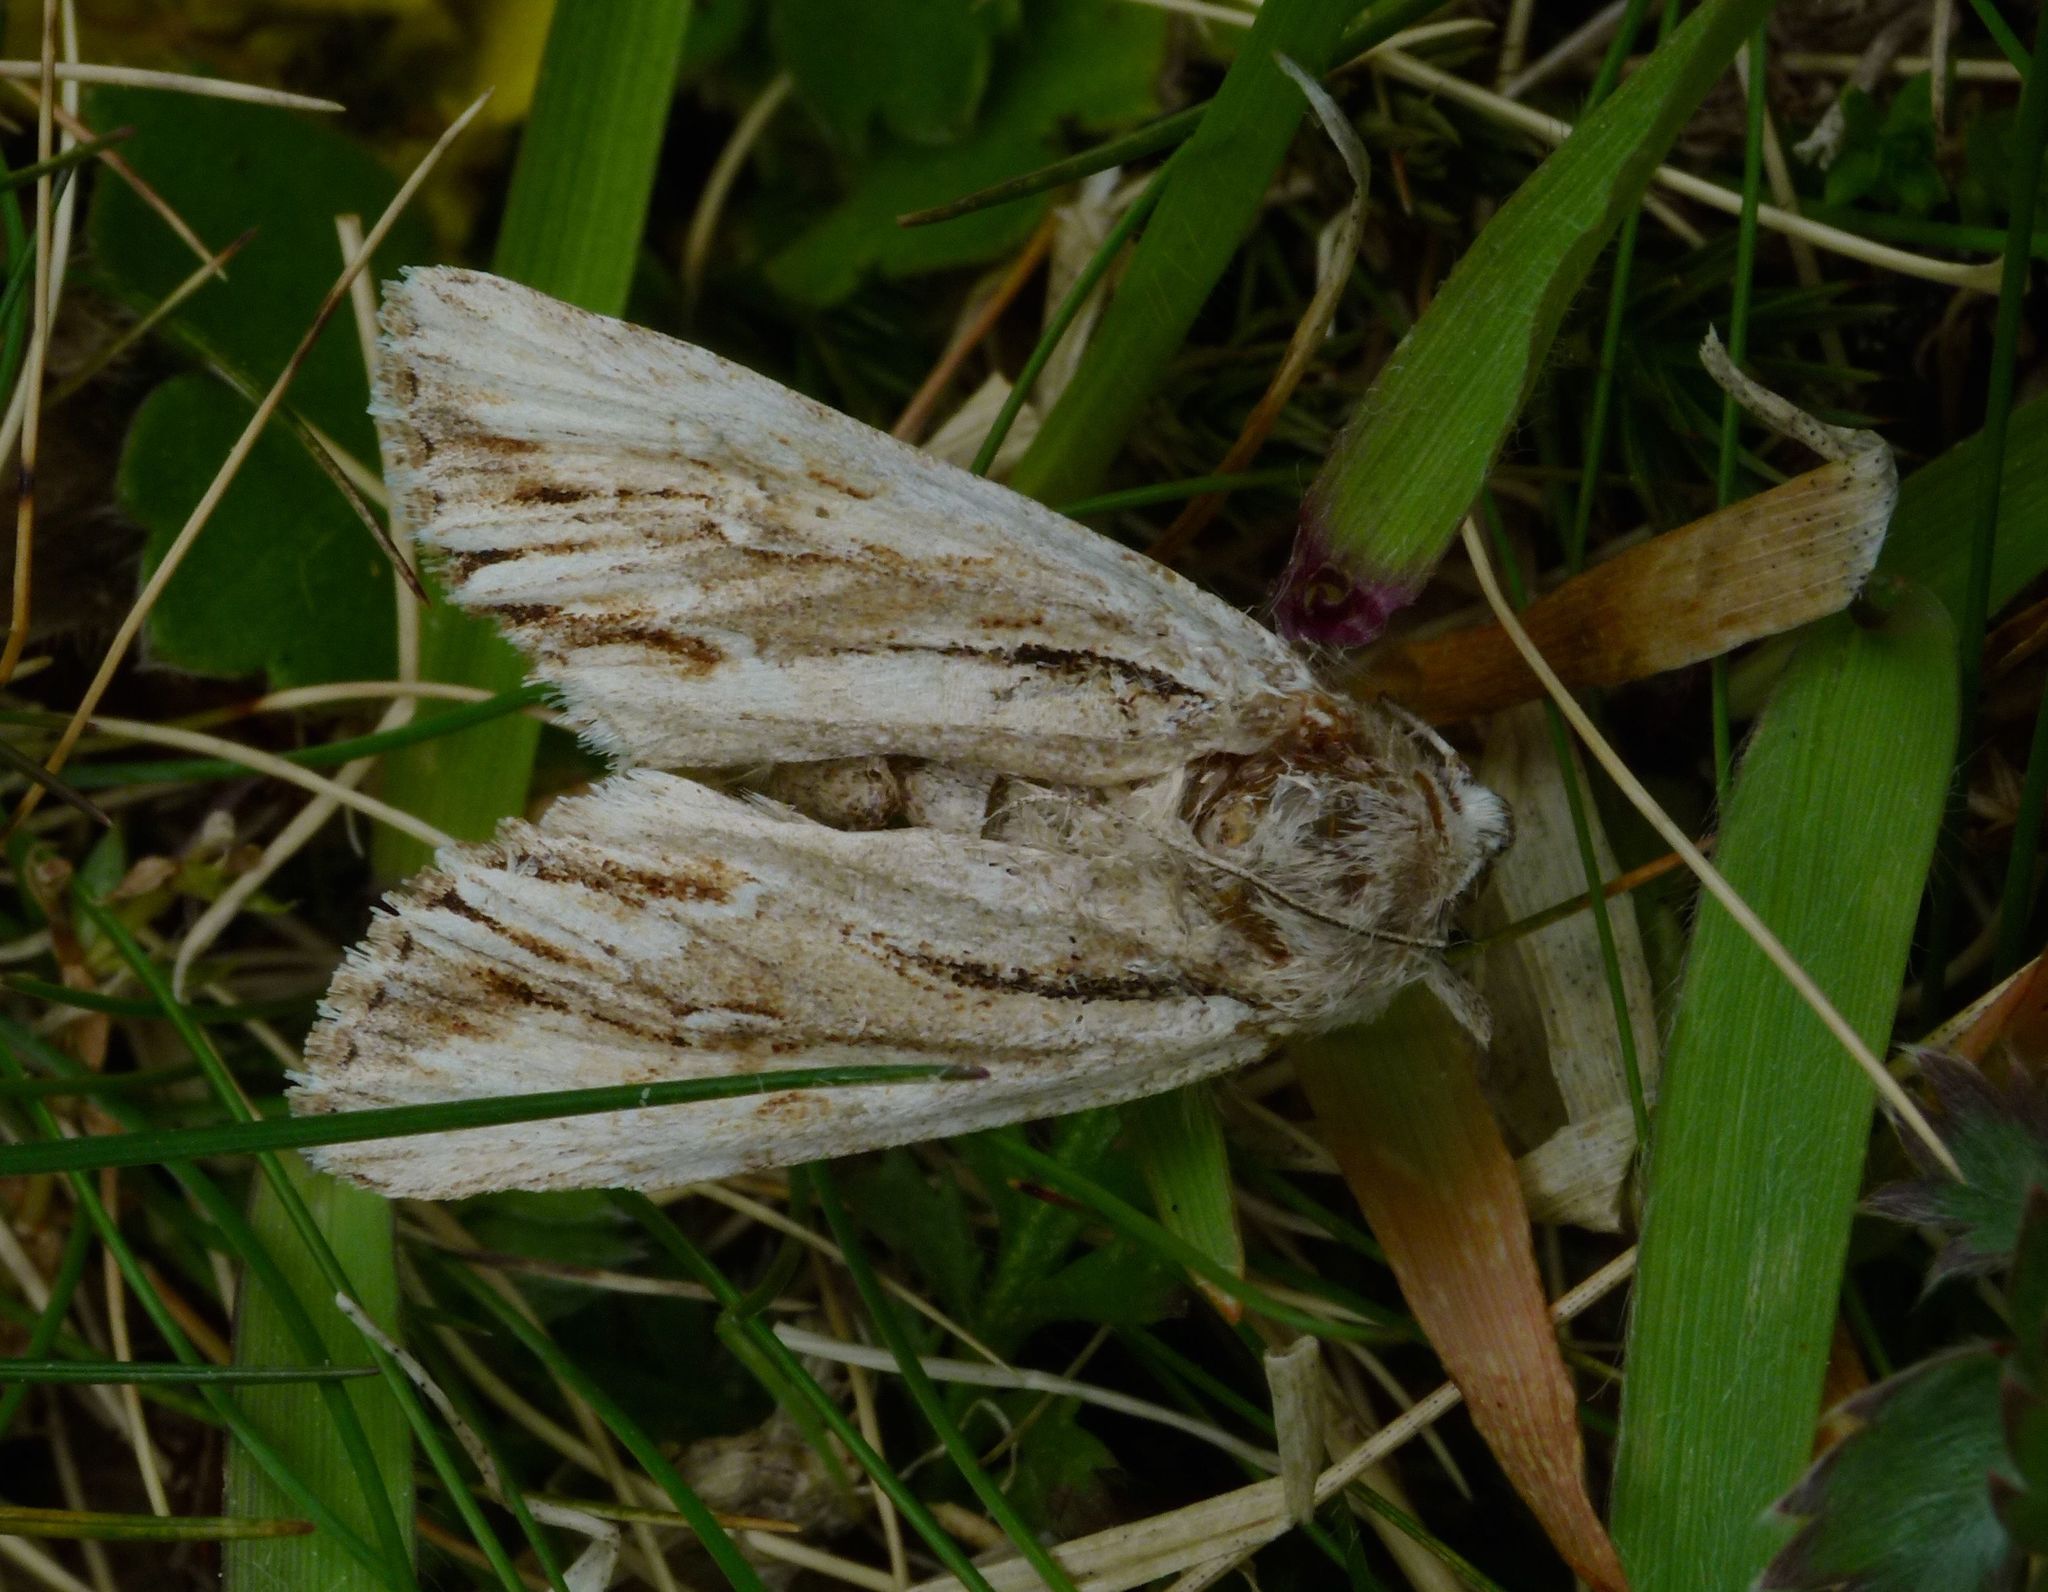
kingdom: Animalia
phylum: Arthropoda
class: Insecta
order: Lepidoptera
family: Noctuidae
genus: Ichneutica
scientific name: Ichneutica
